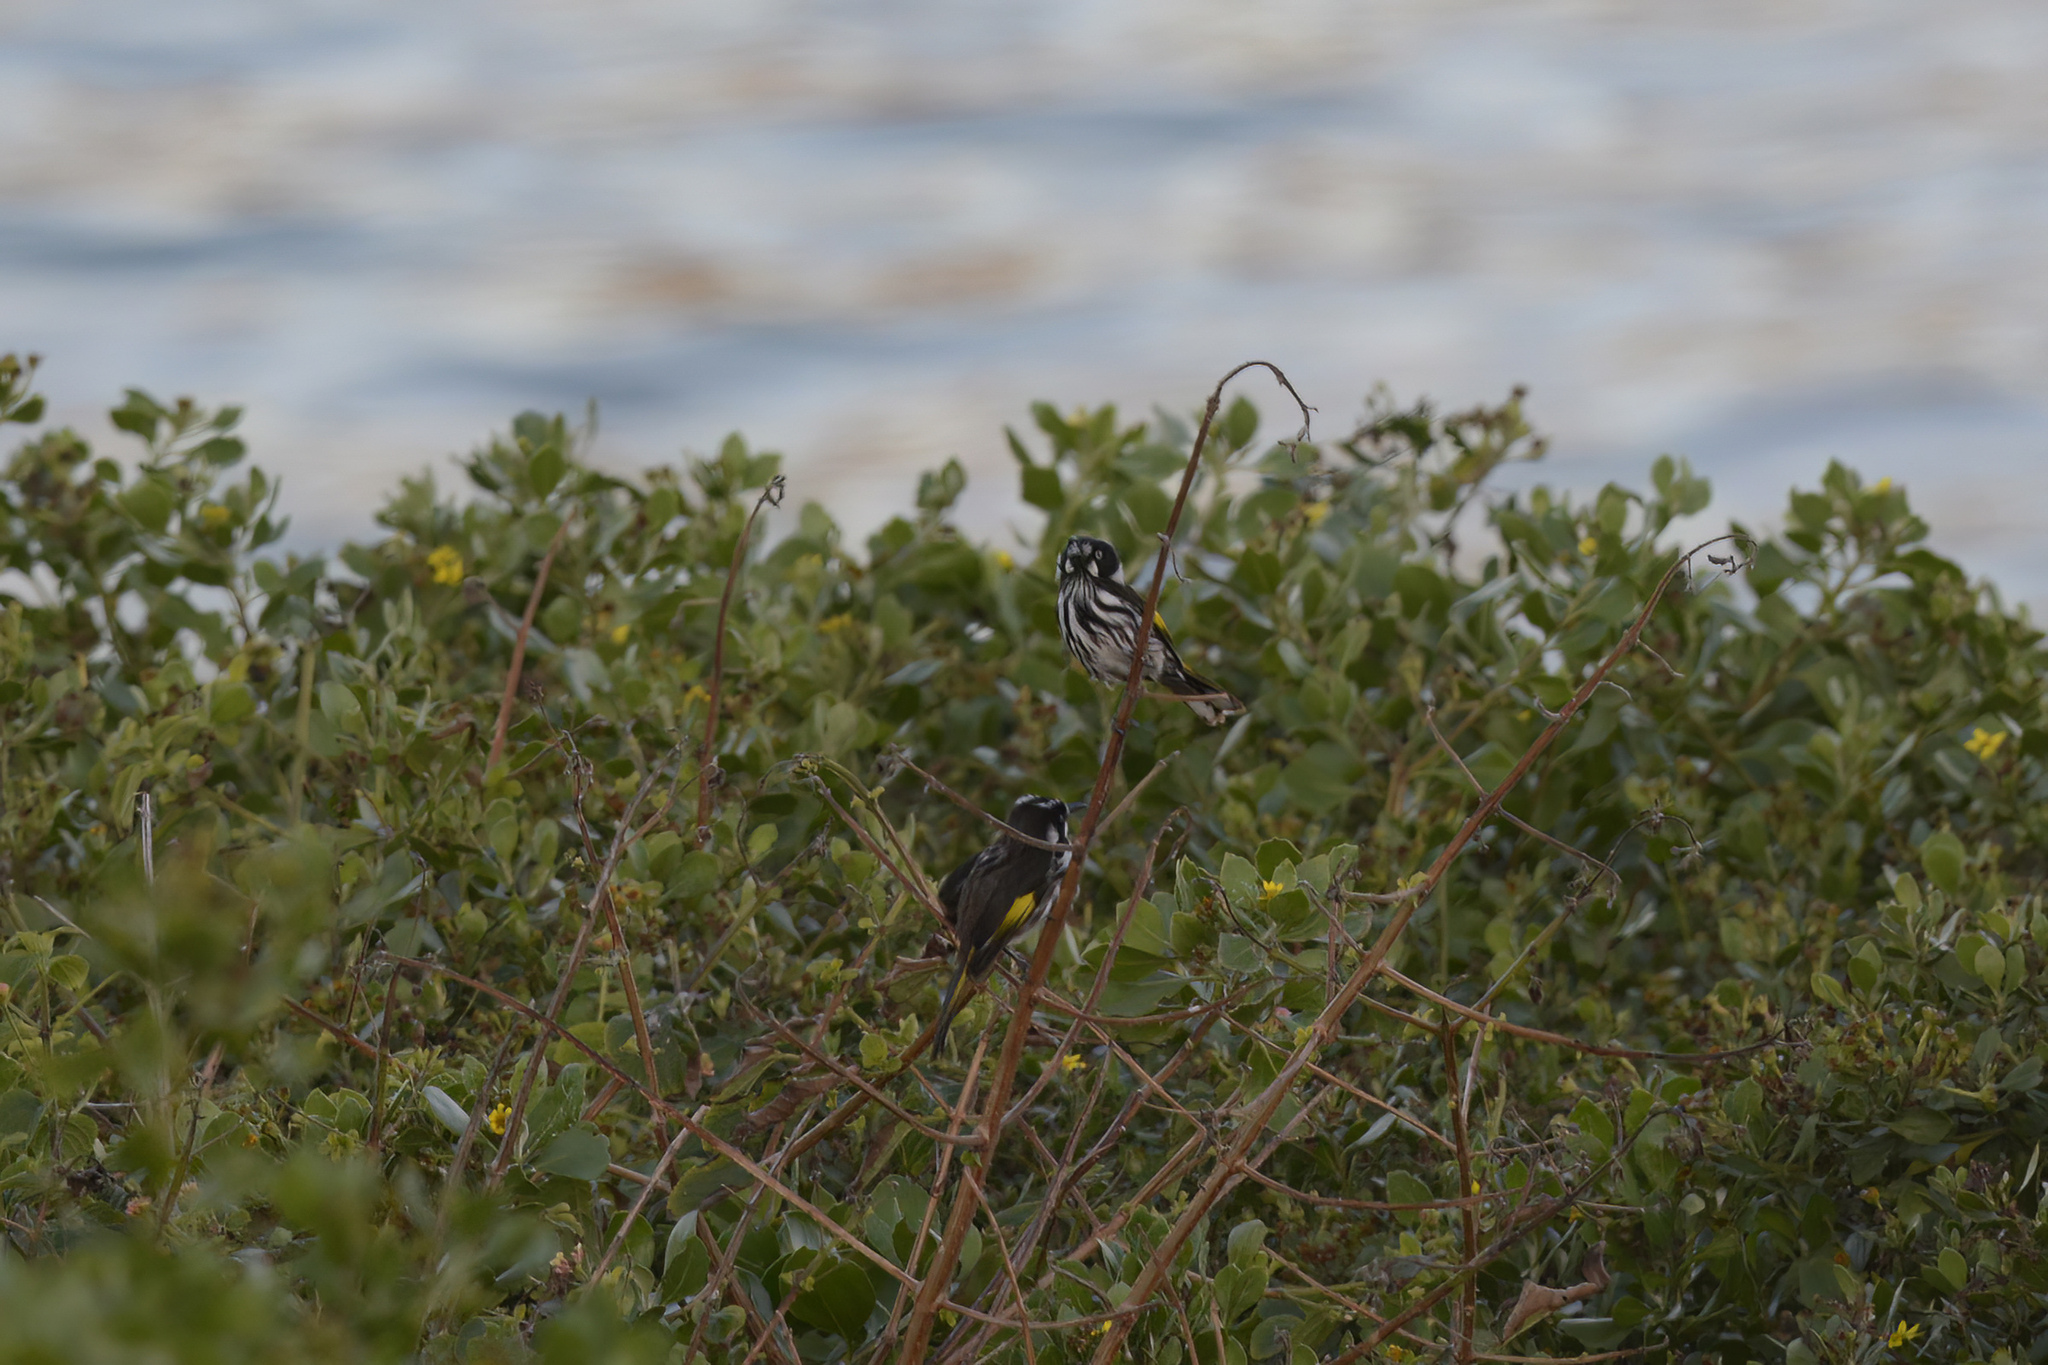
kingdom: Animalia
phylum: Chordata
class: Aves
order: Passeriformes
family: Meliphagidae
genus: Phylidonyris
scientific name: Phylidonyris novaehollandiae
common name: New holland honeyeater
